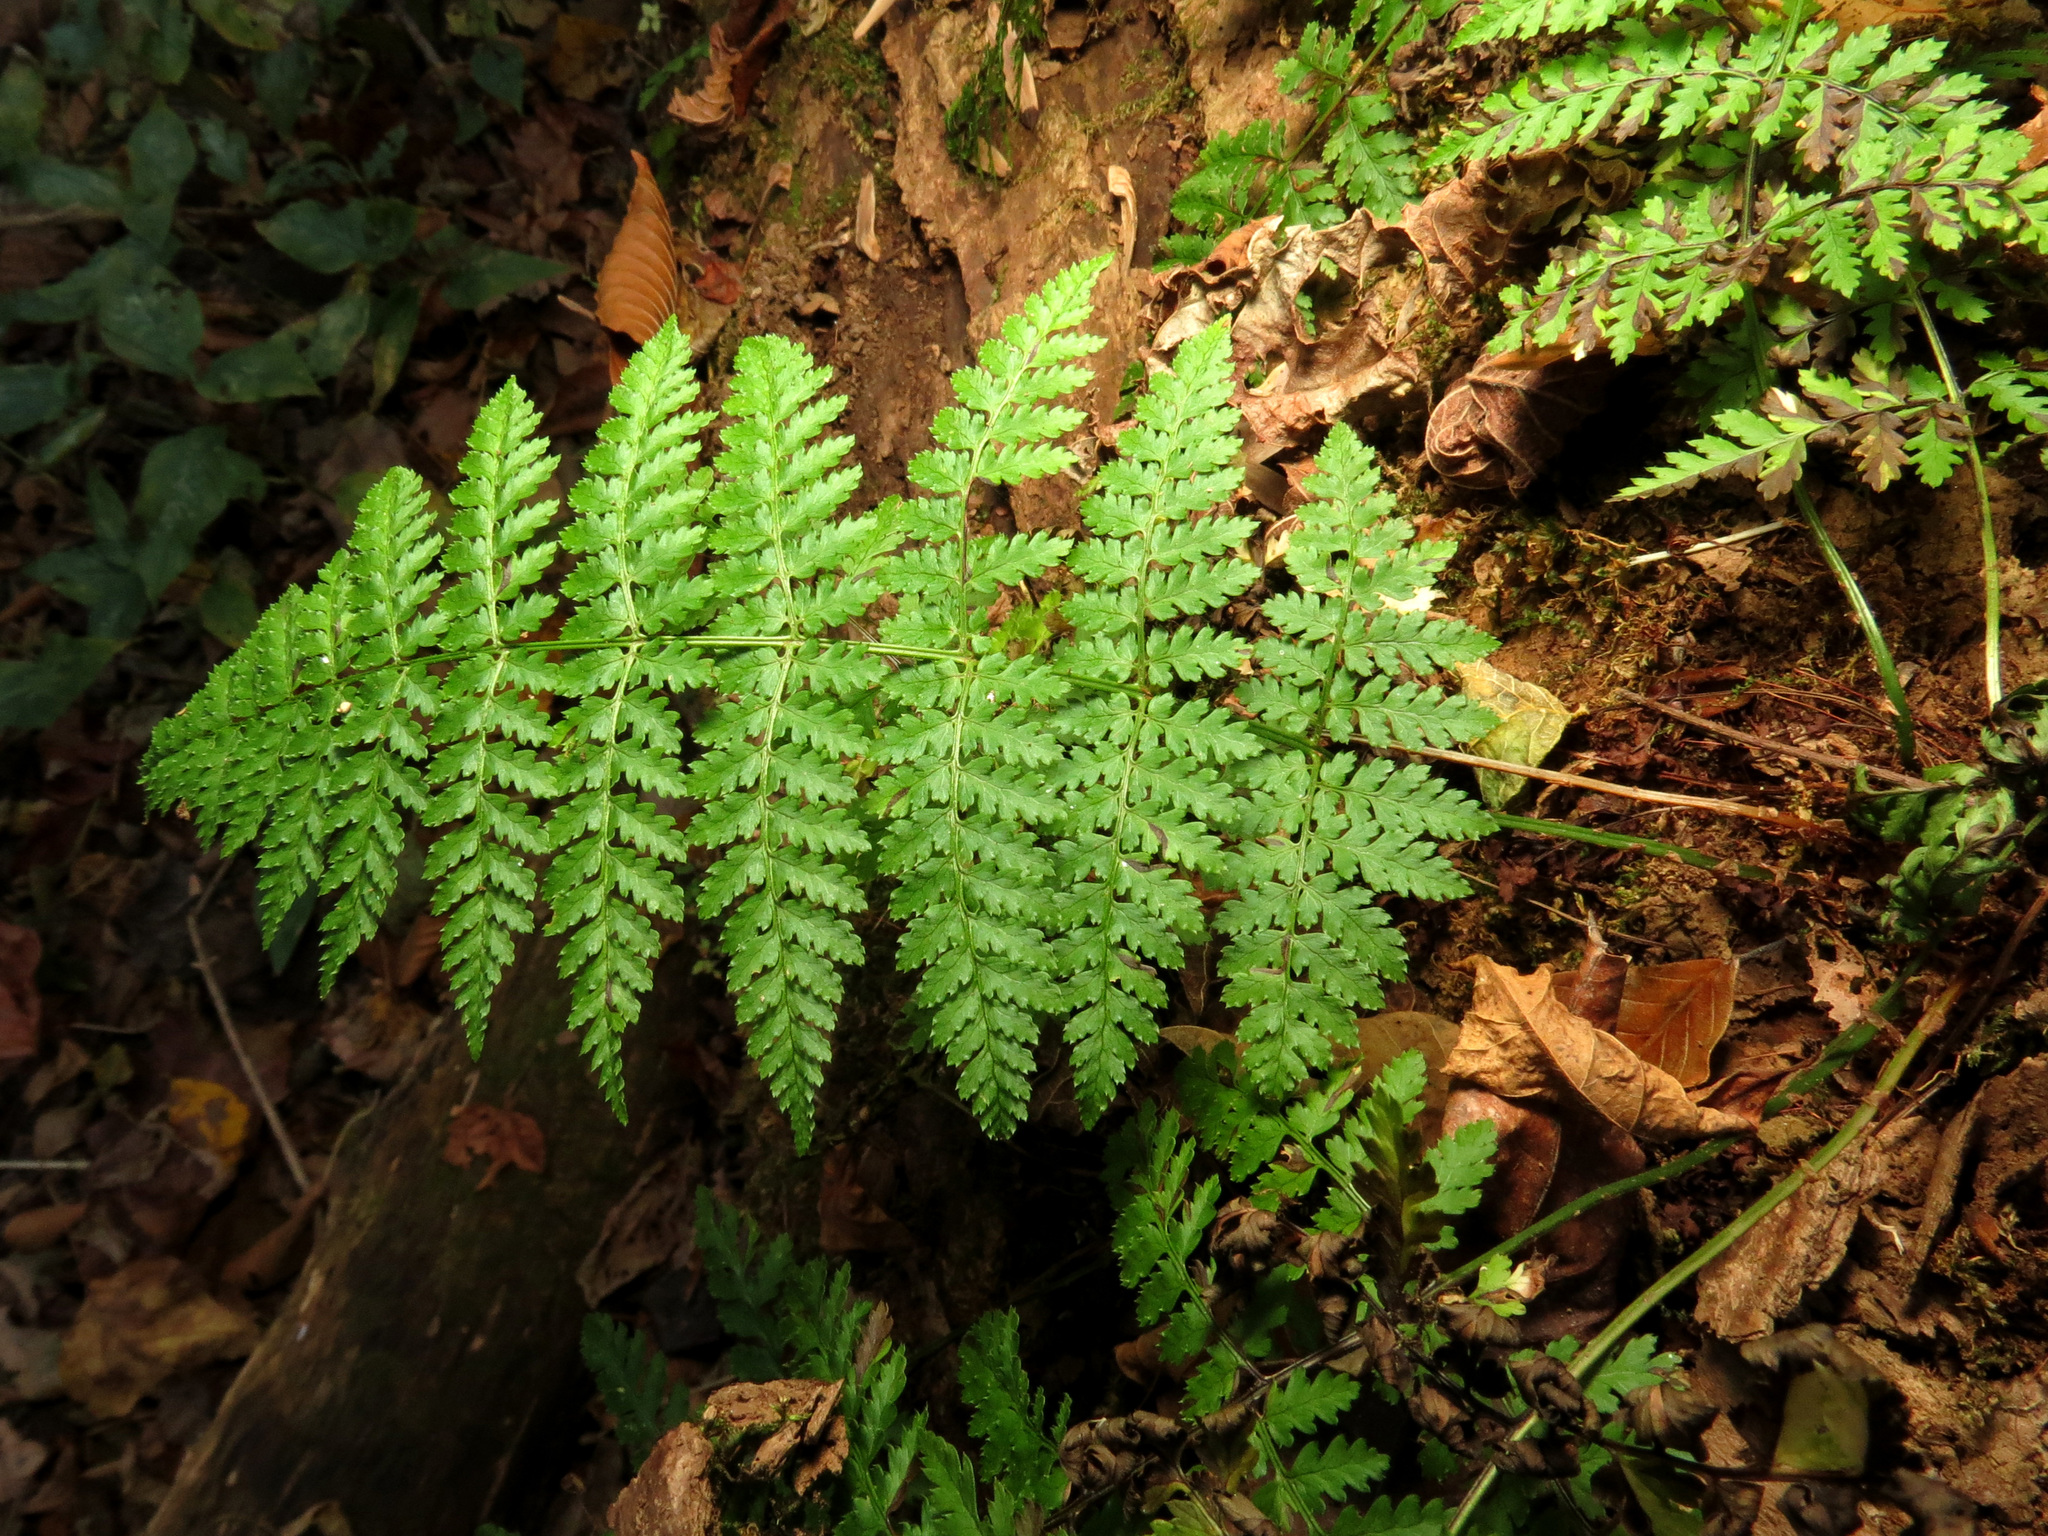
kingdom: Plantae
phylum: Tracheophyta
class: Polypodiopsida
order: Polypodiales
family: Dryopteridaceae
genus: Dryopteris
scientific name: Dryopteris intermedia
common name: Evergreen wood fern
